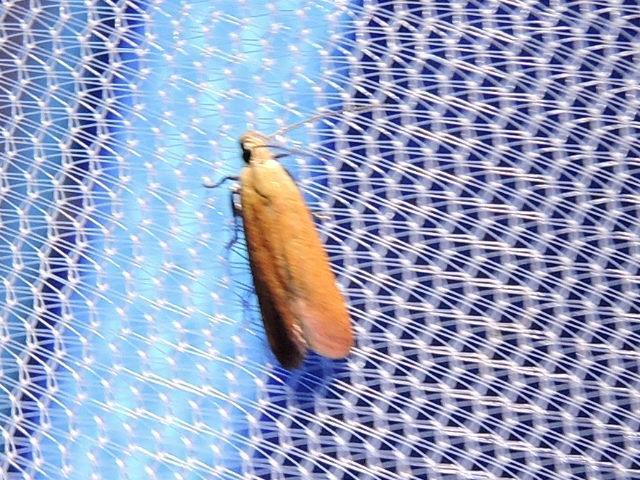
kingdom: Animalia
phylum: Arthropoda
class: Insecta
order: Lepidoptera
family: Gelechiidae
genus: Anacampsis
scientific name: Anacampsis fullonella
